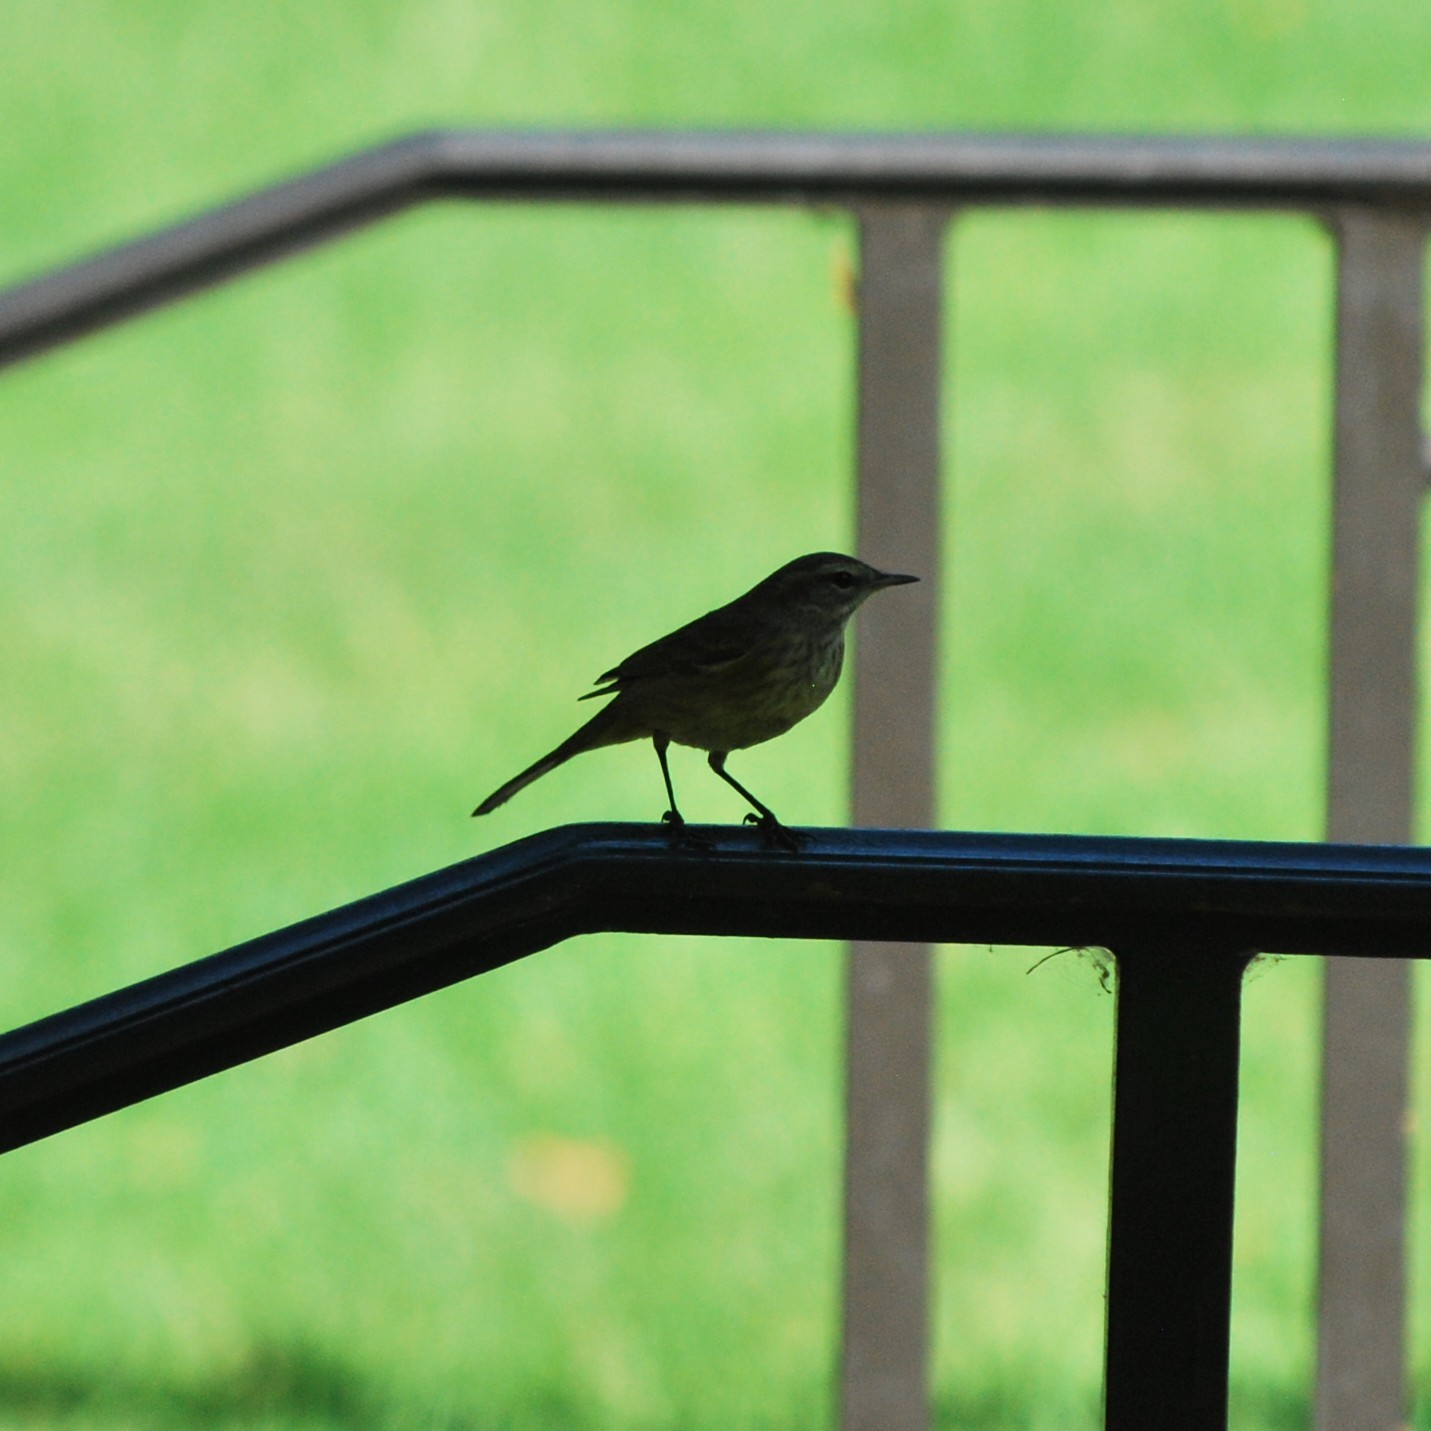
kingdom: Animalia
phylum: Chordata
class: Aves
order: Passeriformes
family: Parulidae
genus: Setophaga
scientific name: Setophaga palmarum
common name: Palm warbler
